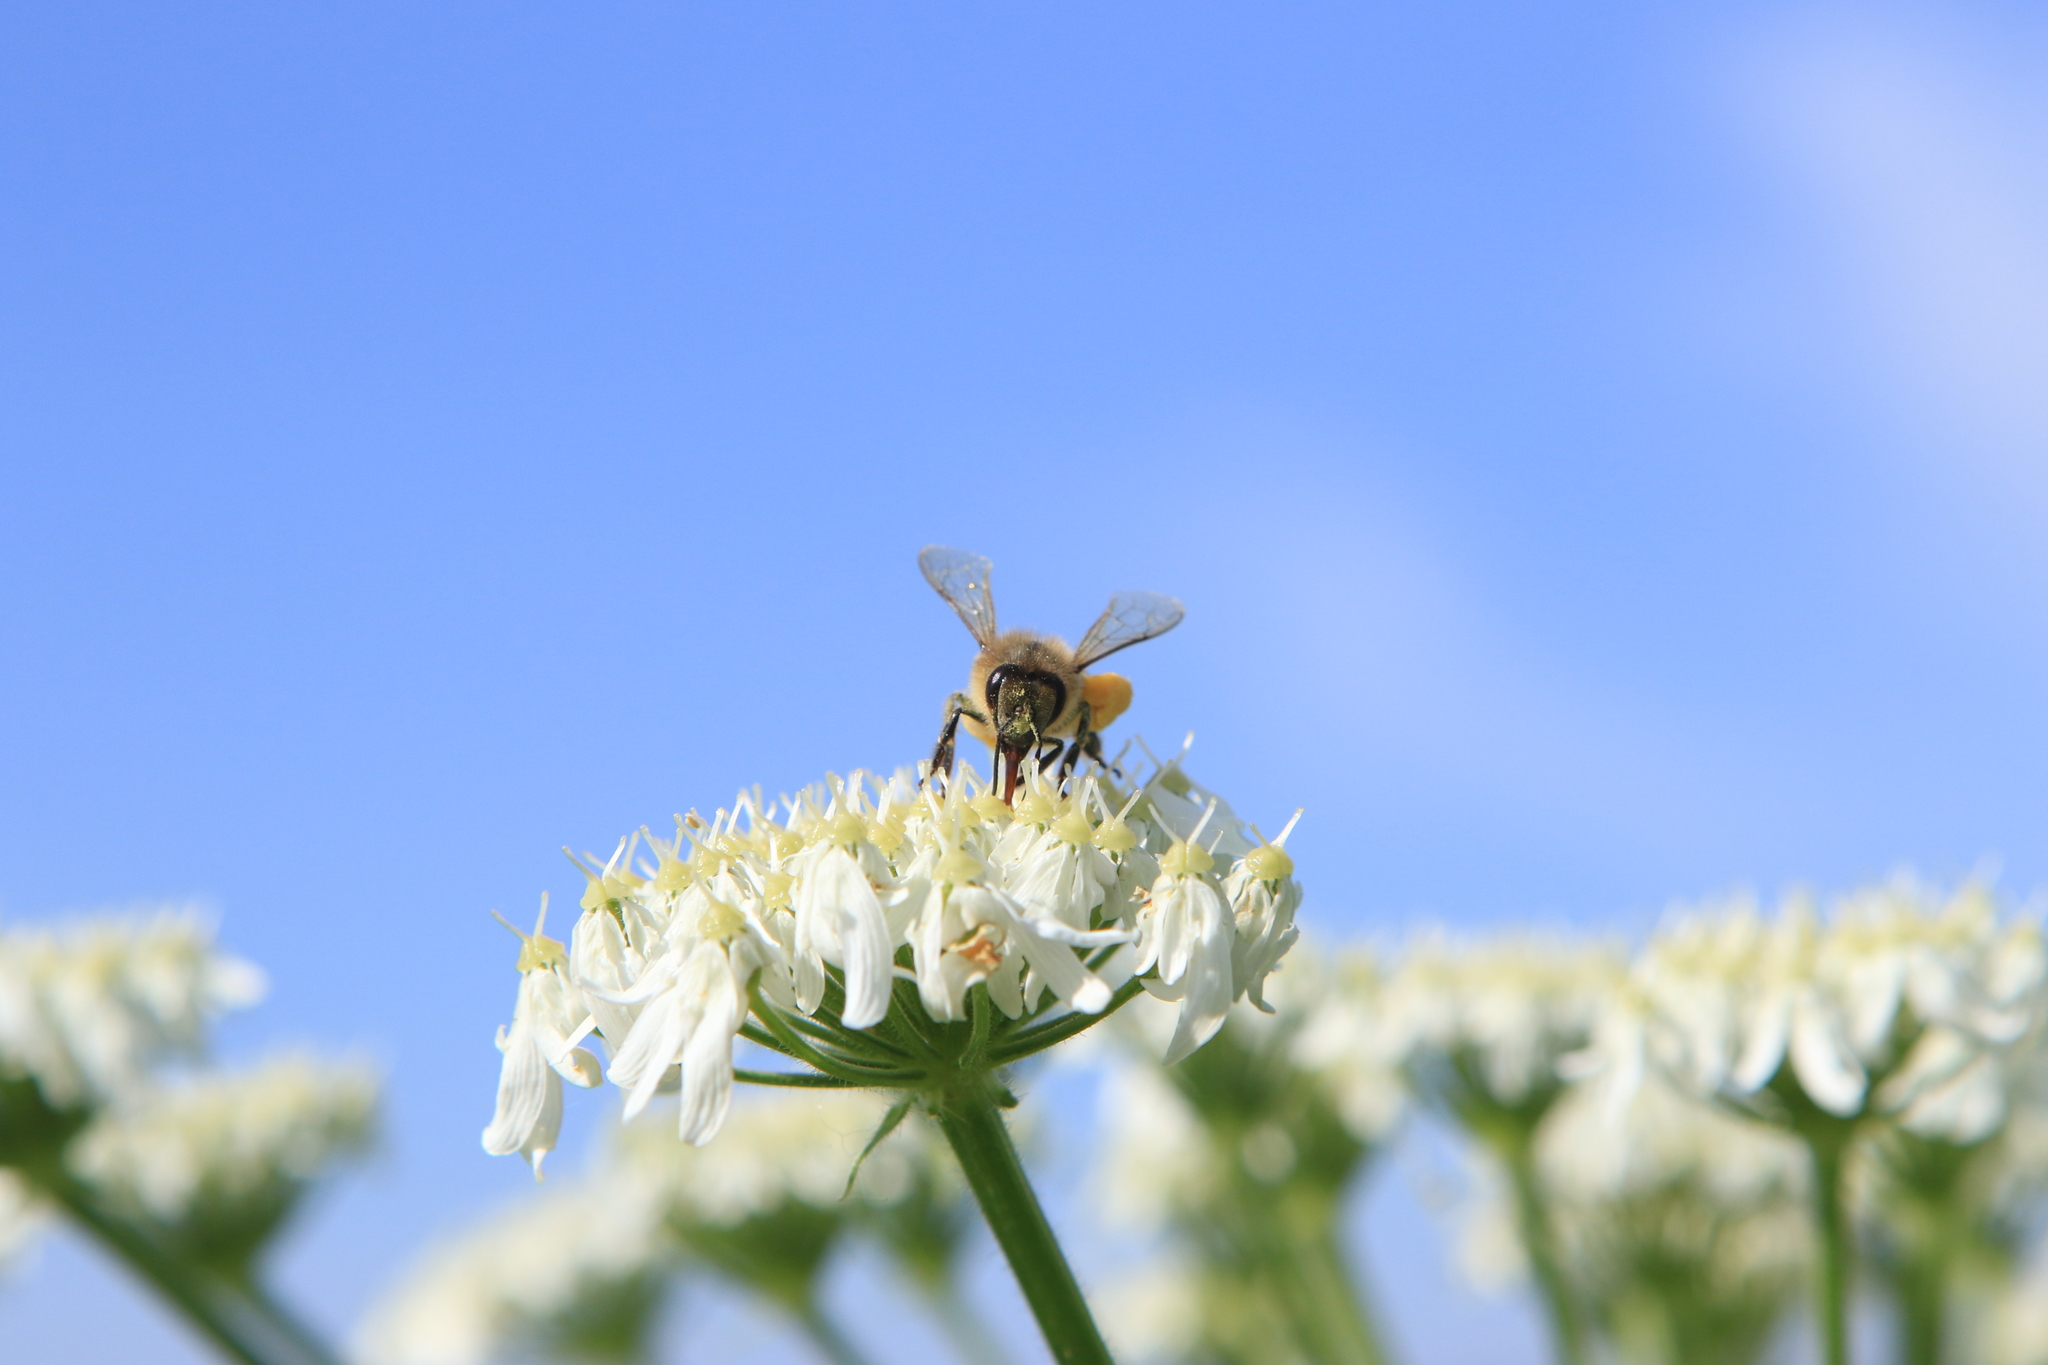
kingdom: Animalia
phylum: Arthropoda
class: Insecta
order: Hymenoptera
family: Apidae
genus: Apis
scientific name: Apis mellifera
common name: Honey bee
